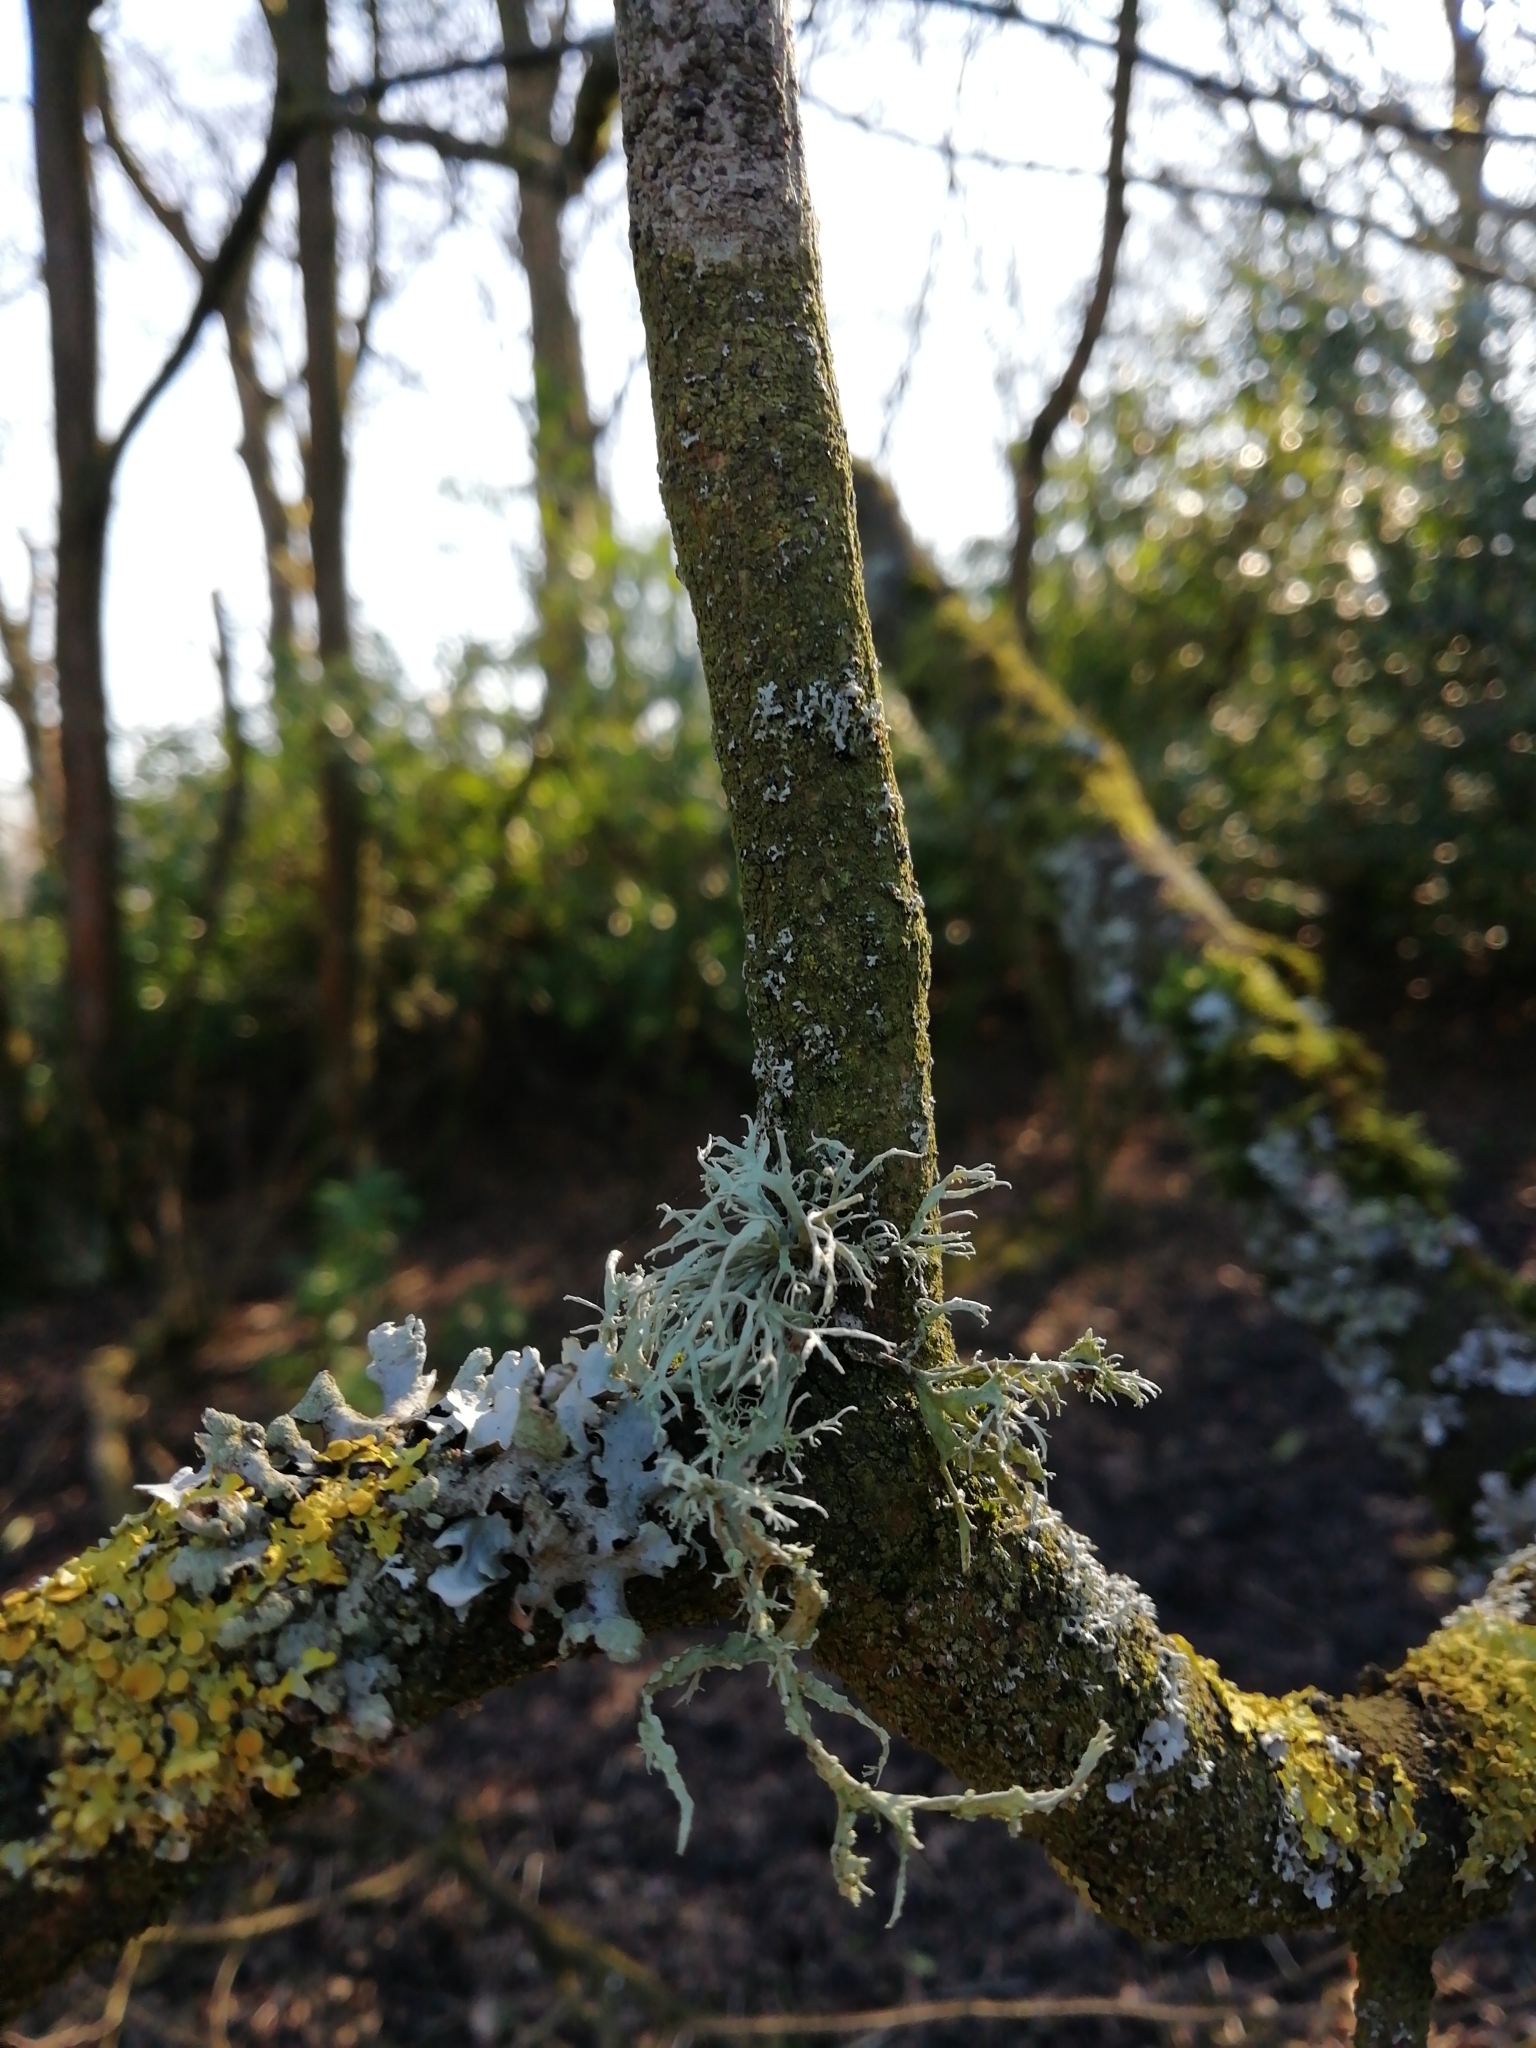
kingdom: Fungi
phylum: Ascomycota
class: Lecanoromycetes
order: Lecanorales
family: Ramalinaceae
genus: Ramalina
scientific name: Ramalina farinacea
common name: Farinose cartilage lichen
